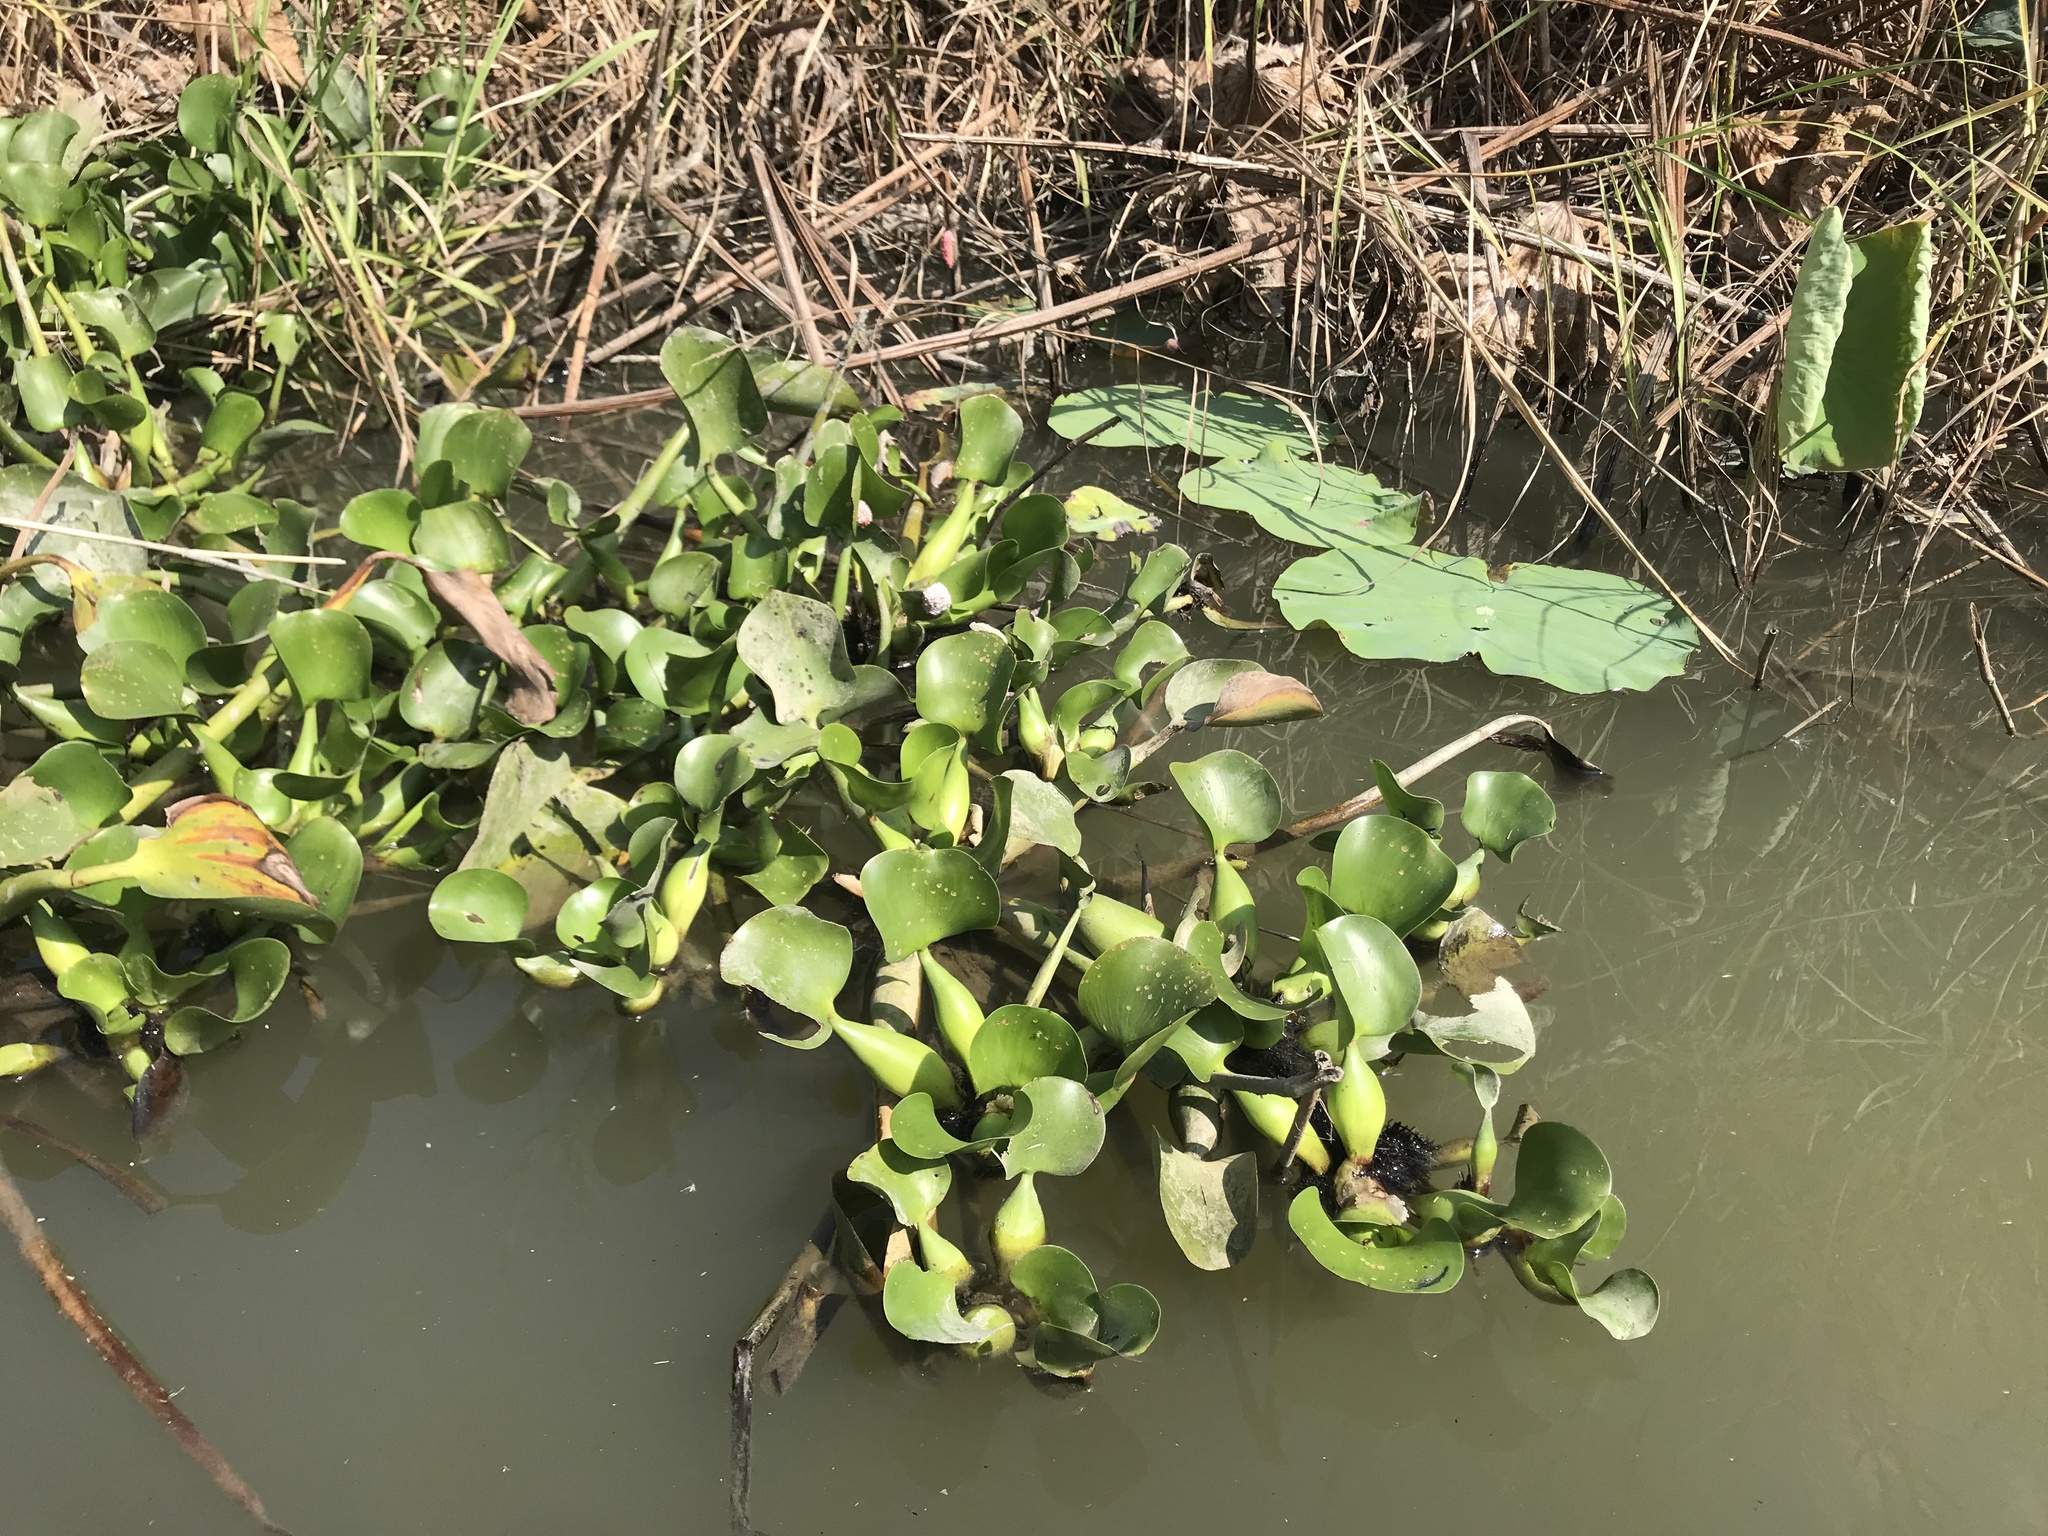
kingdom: Plantae
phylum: Tracheophyta
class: Liliopsida
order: Commelinales
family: Pontederiaceae
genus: Pontederia
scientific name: Pontederia crassipes
